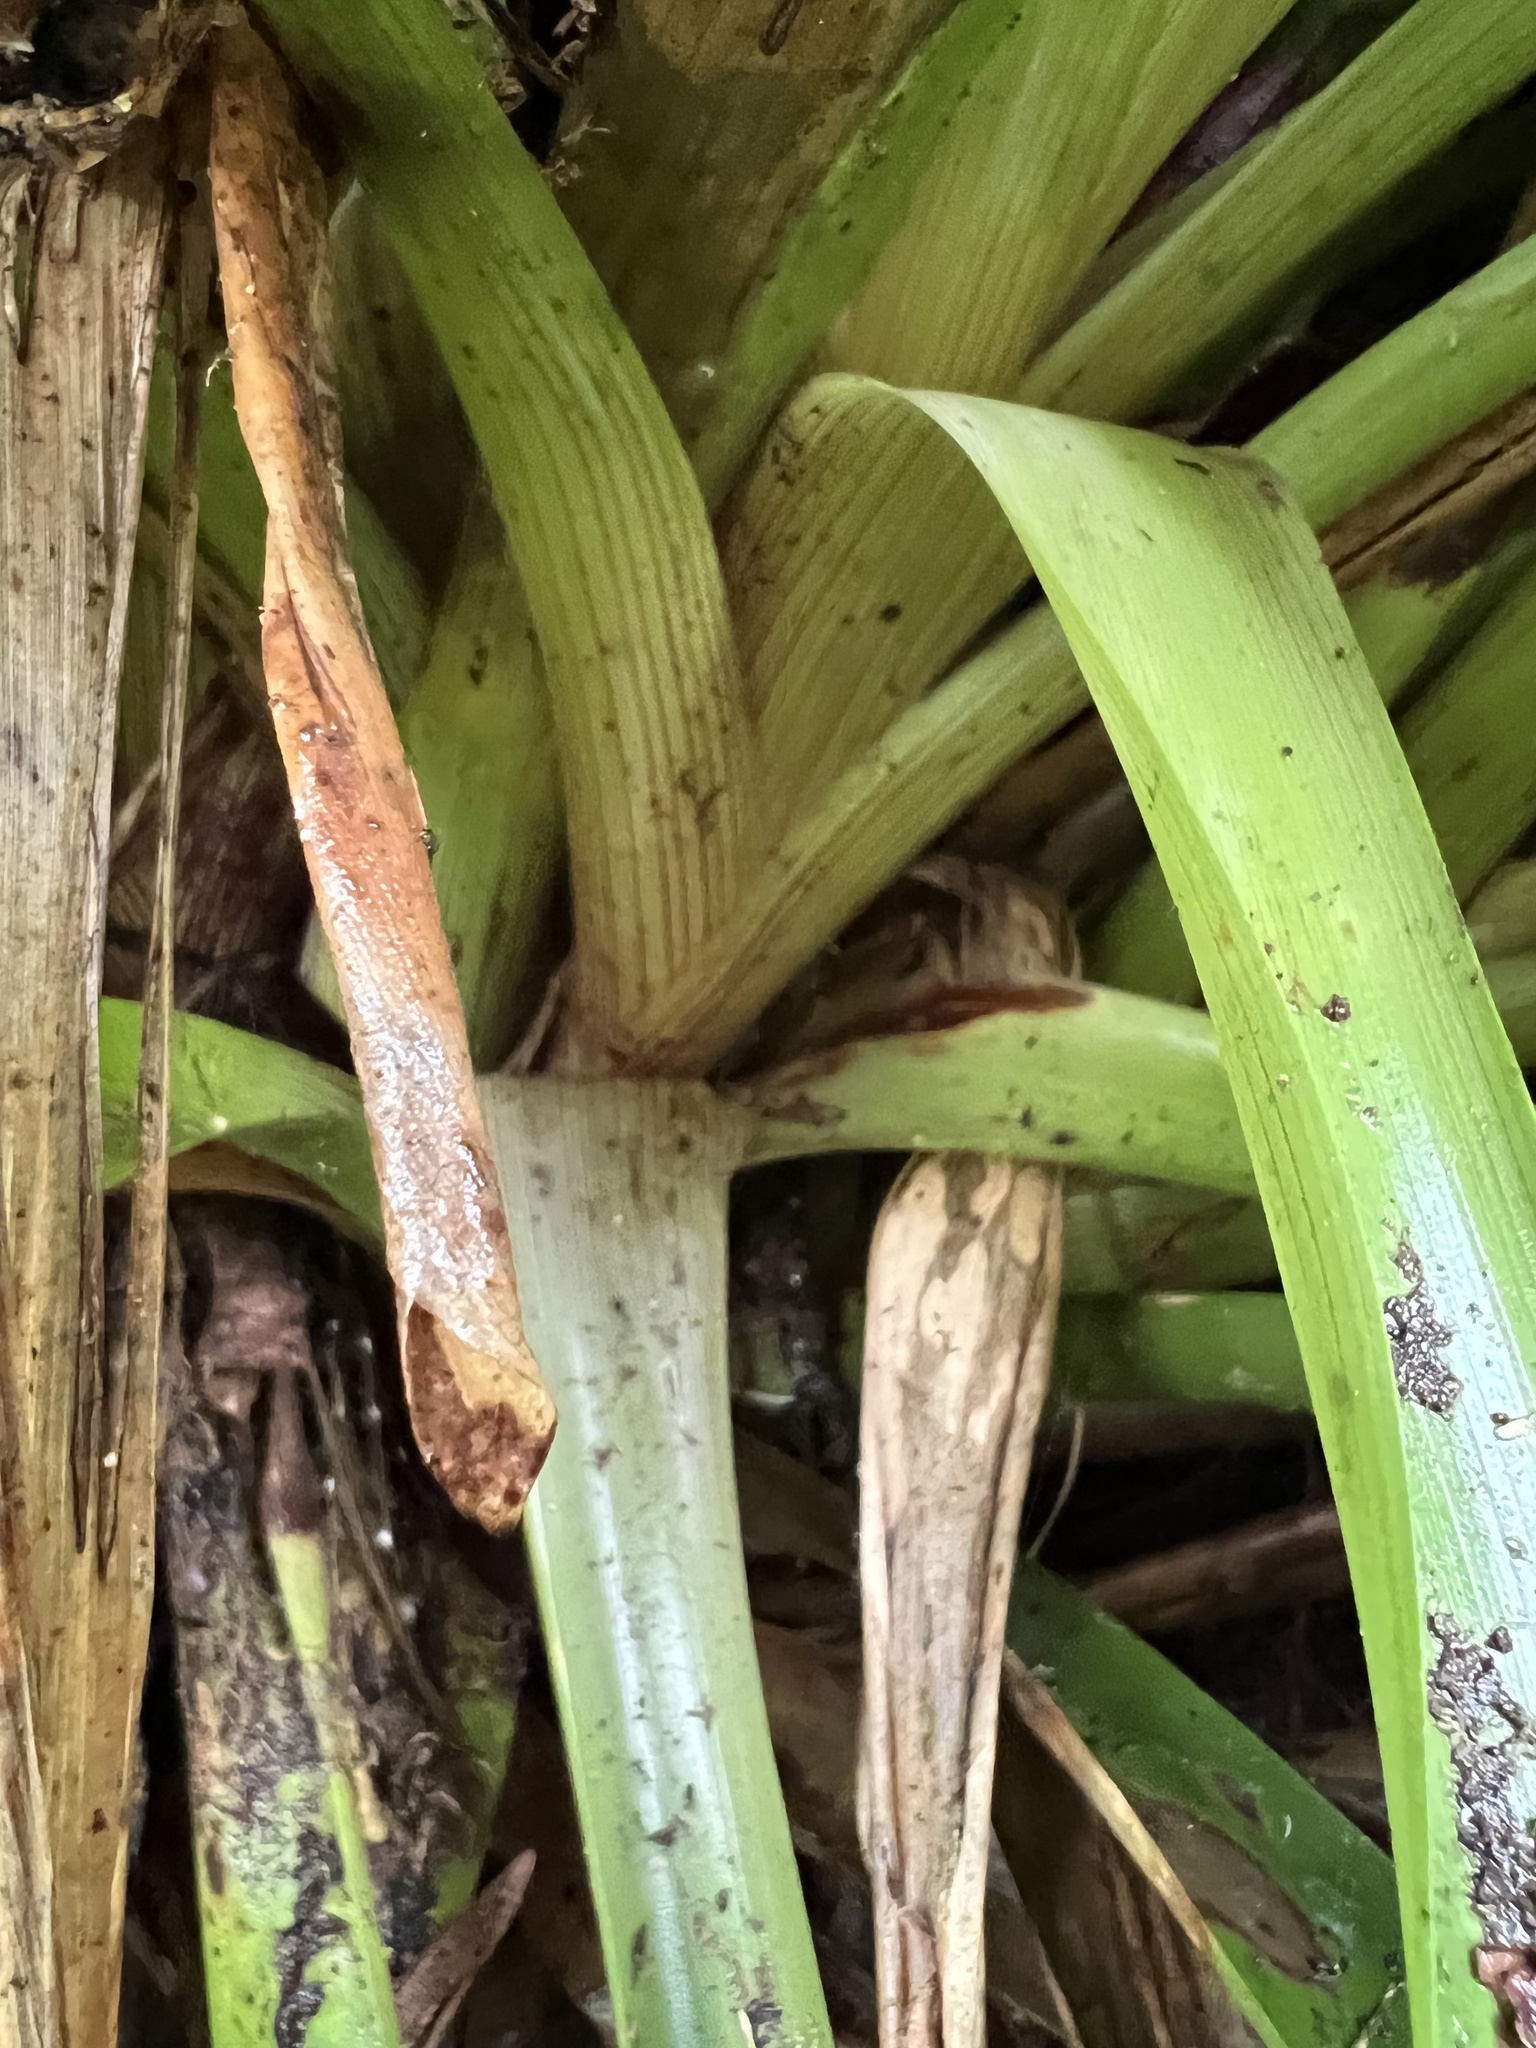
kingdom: Plantae
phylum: Tracheophyta
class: Liliopsida
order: Poales
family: Bromeliaceae
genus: Guzmania
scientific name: Guzmania squarrosa
